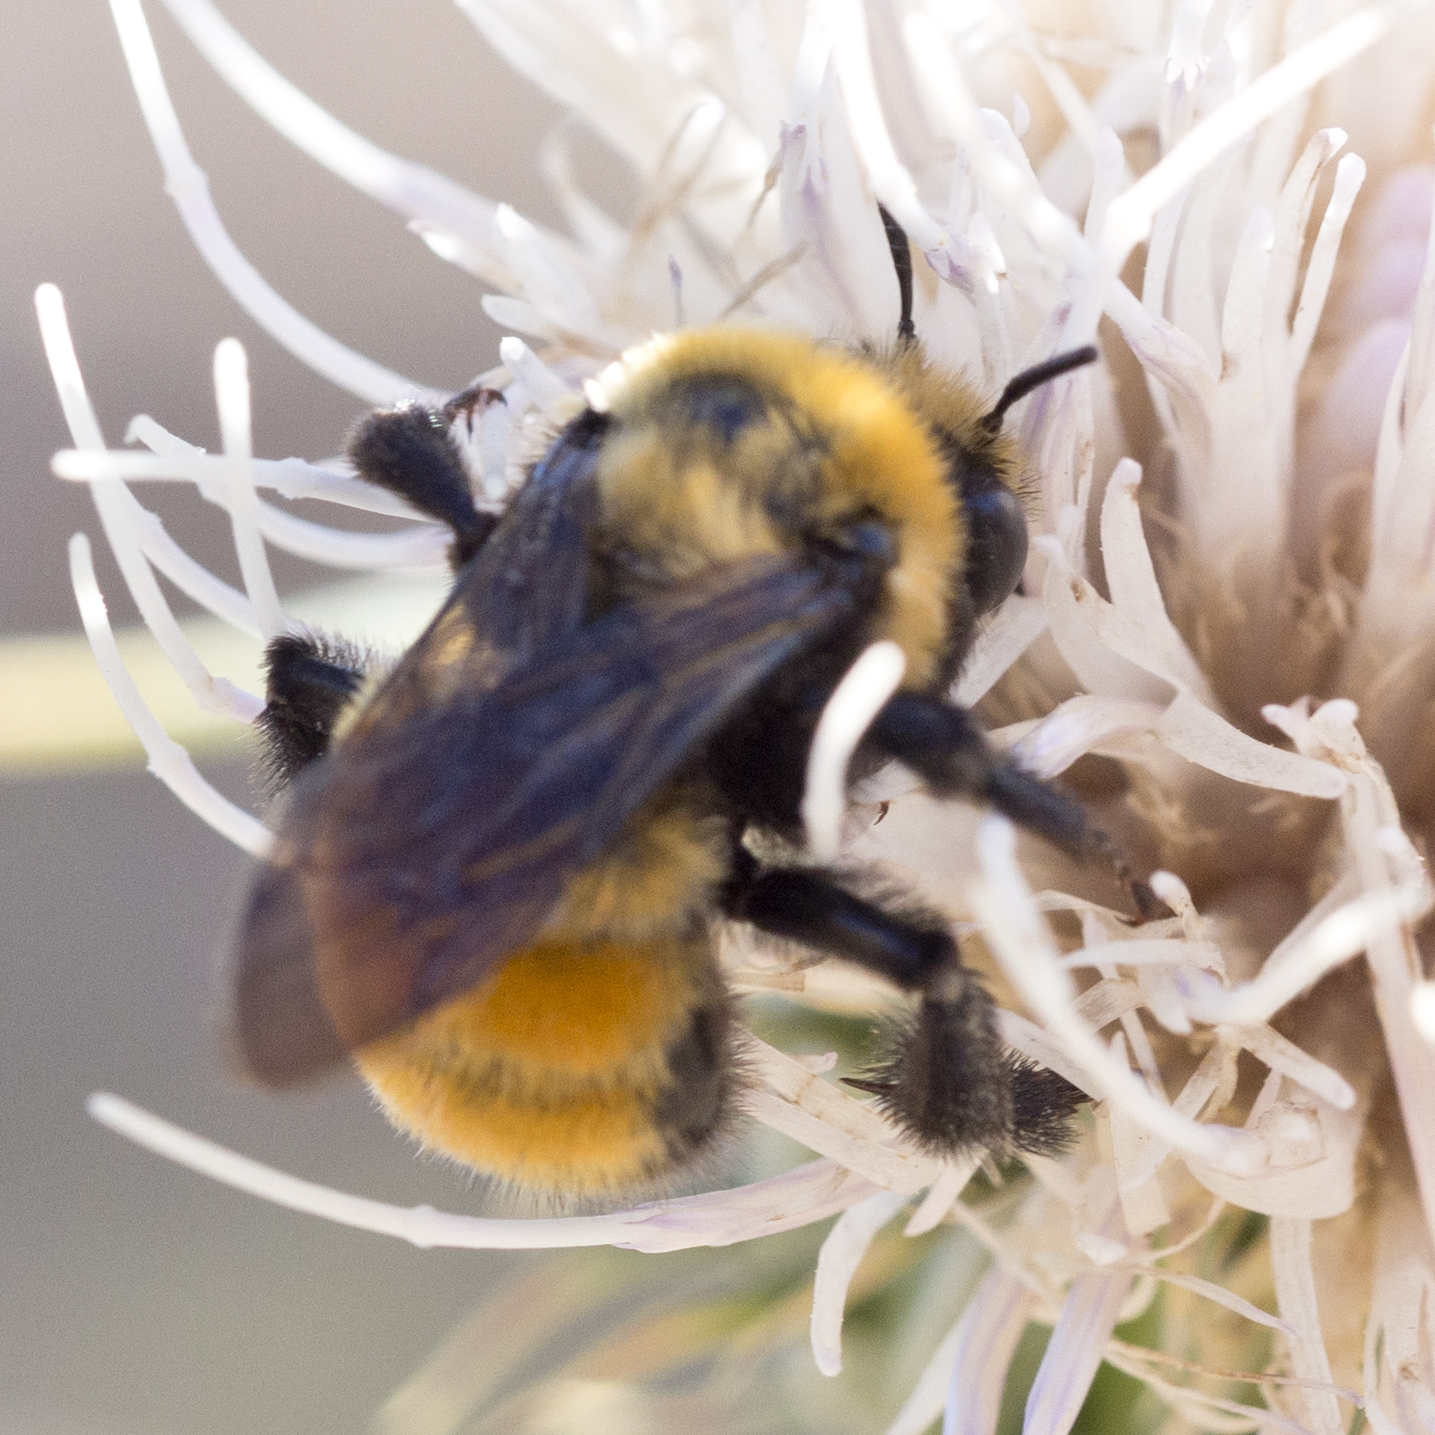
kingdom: Animalia
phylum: Arthropoda
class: Insecta
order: Hymenoptera
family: Apidae
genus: Anthophora
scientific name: Anthophora bomboides
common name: Bumble-bee-mimic digger bee
